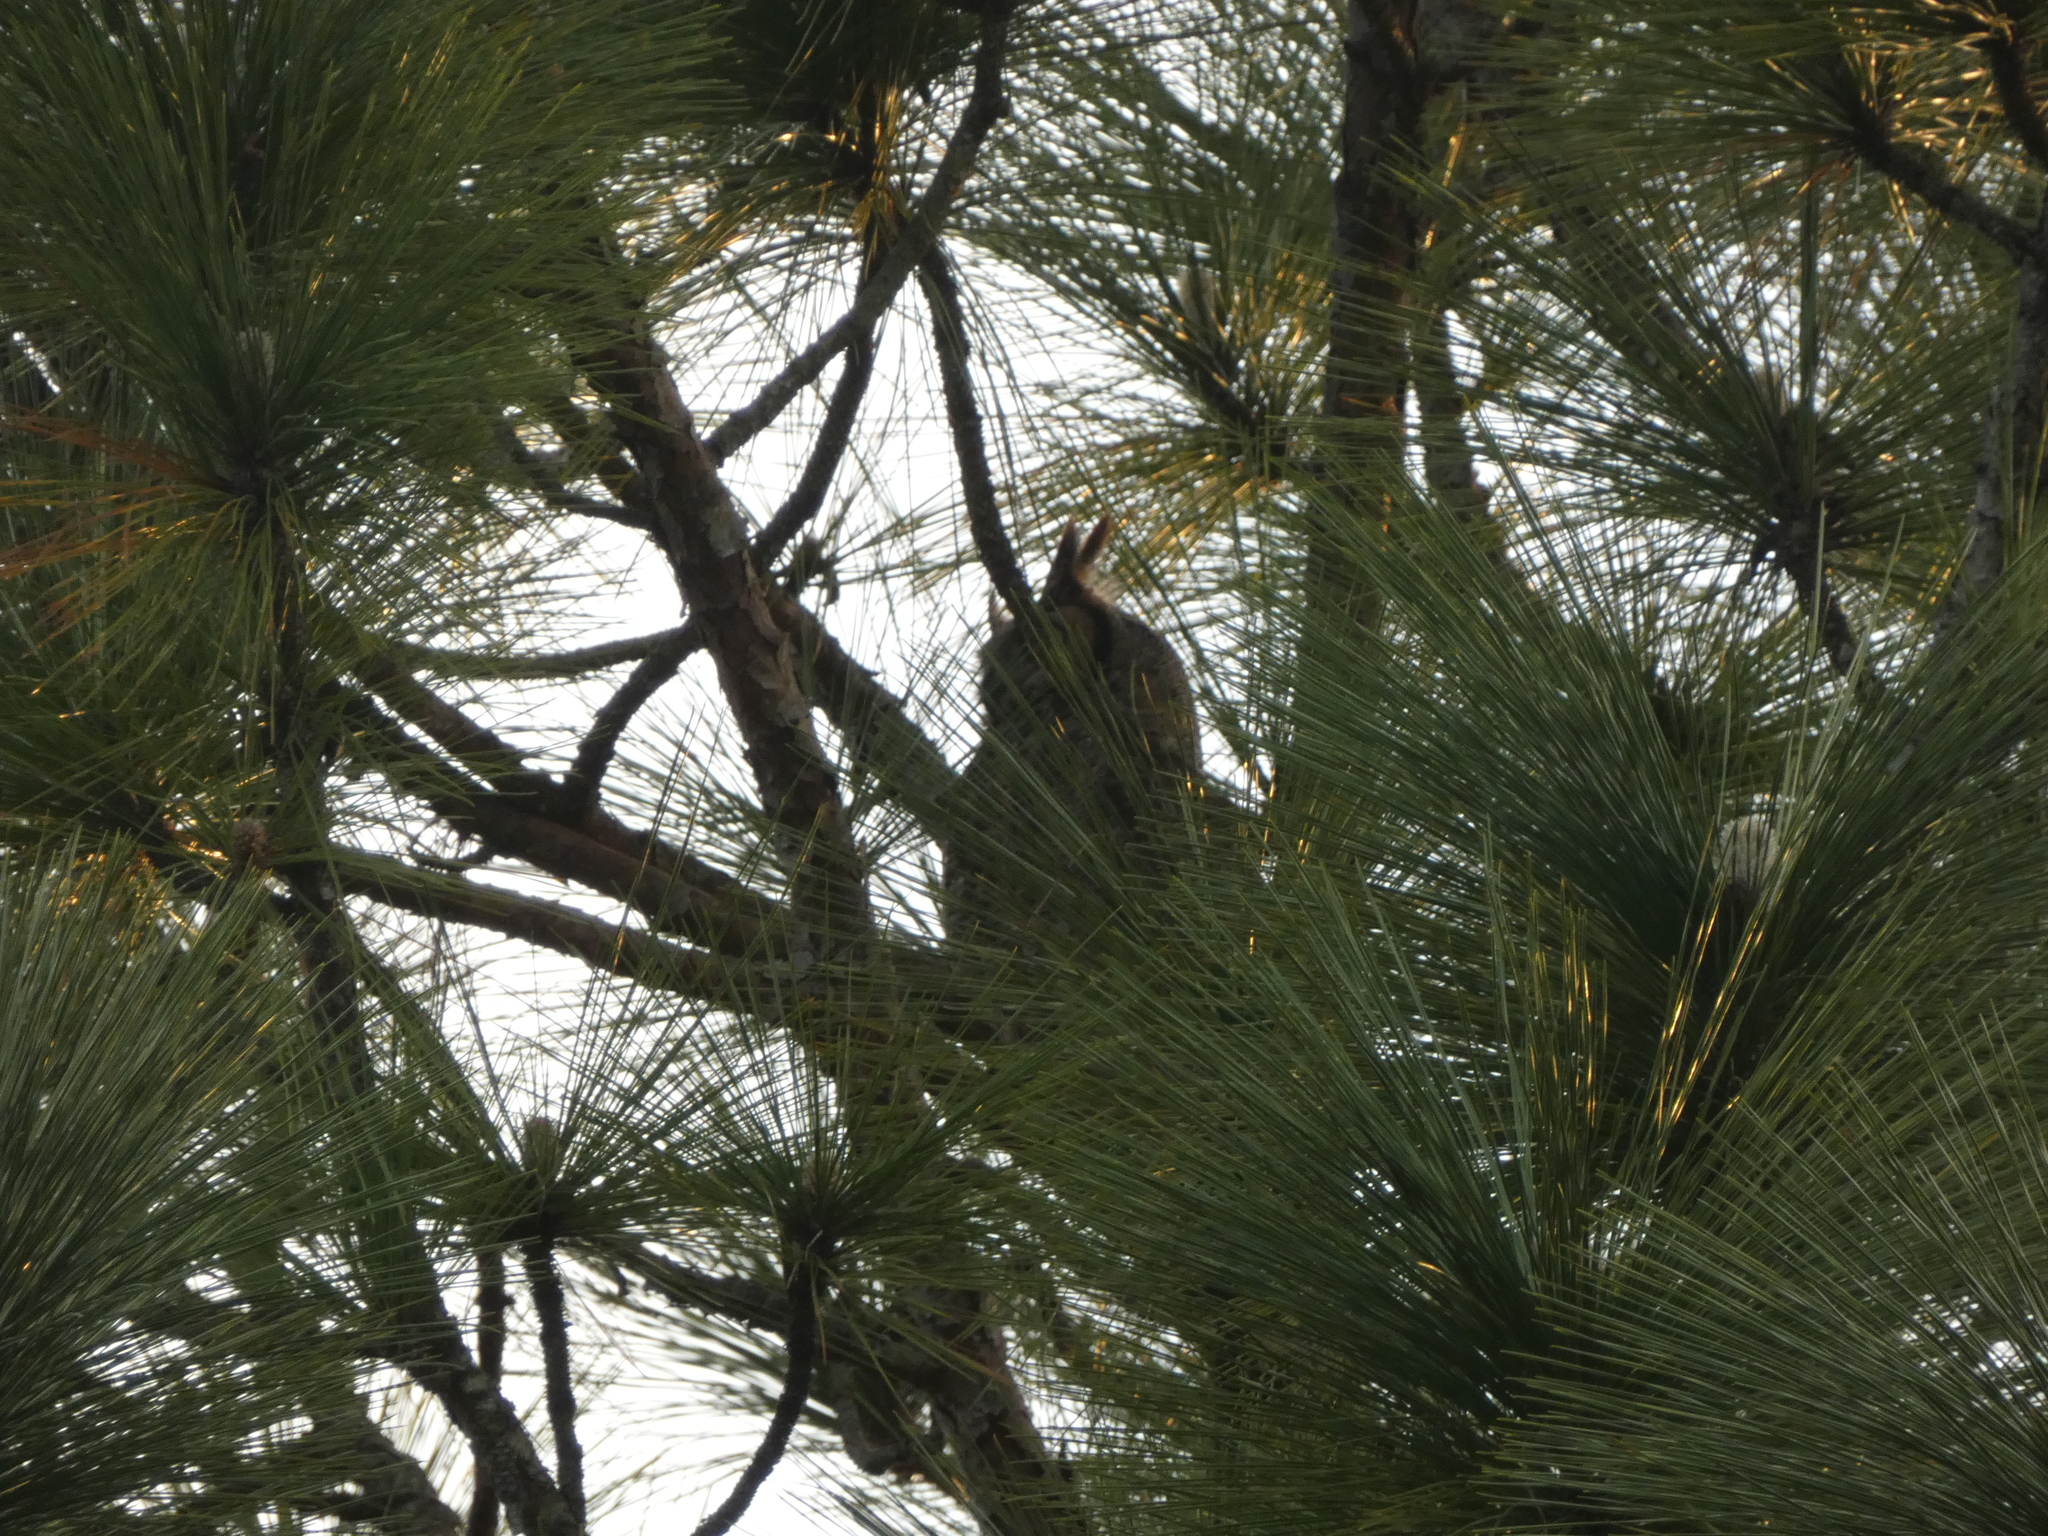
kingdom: Animalia
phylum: Chordata
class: Aves
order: Strigiformes
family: Strigidae
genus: Bubo
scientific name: Bubo virginianus
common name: Great horned owl
